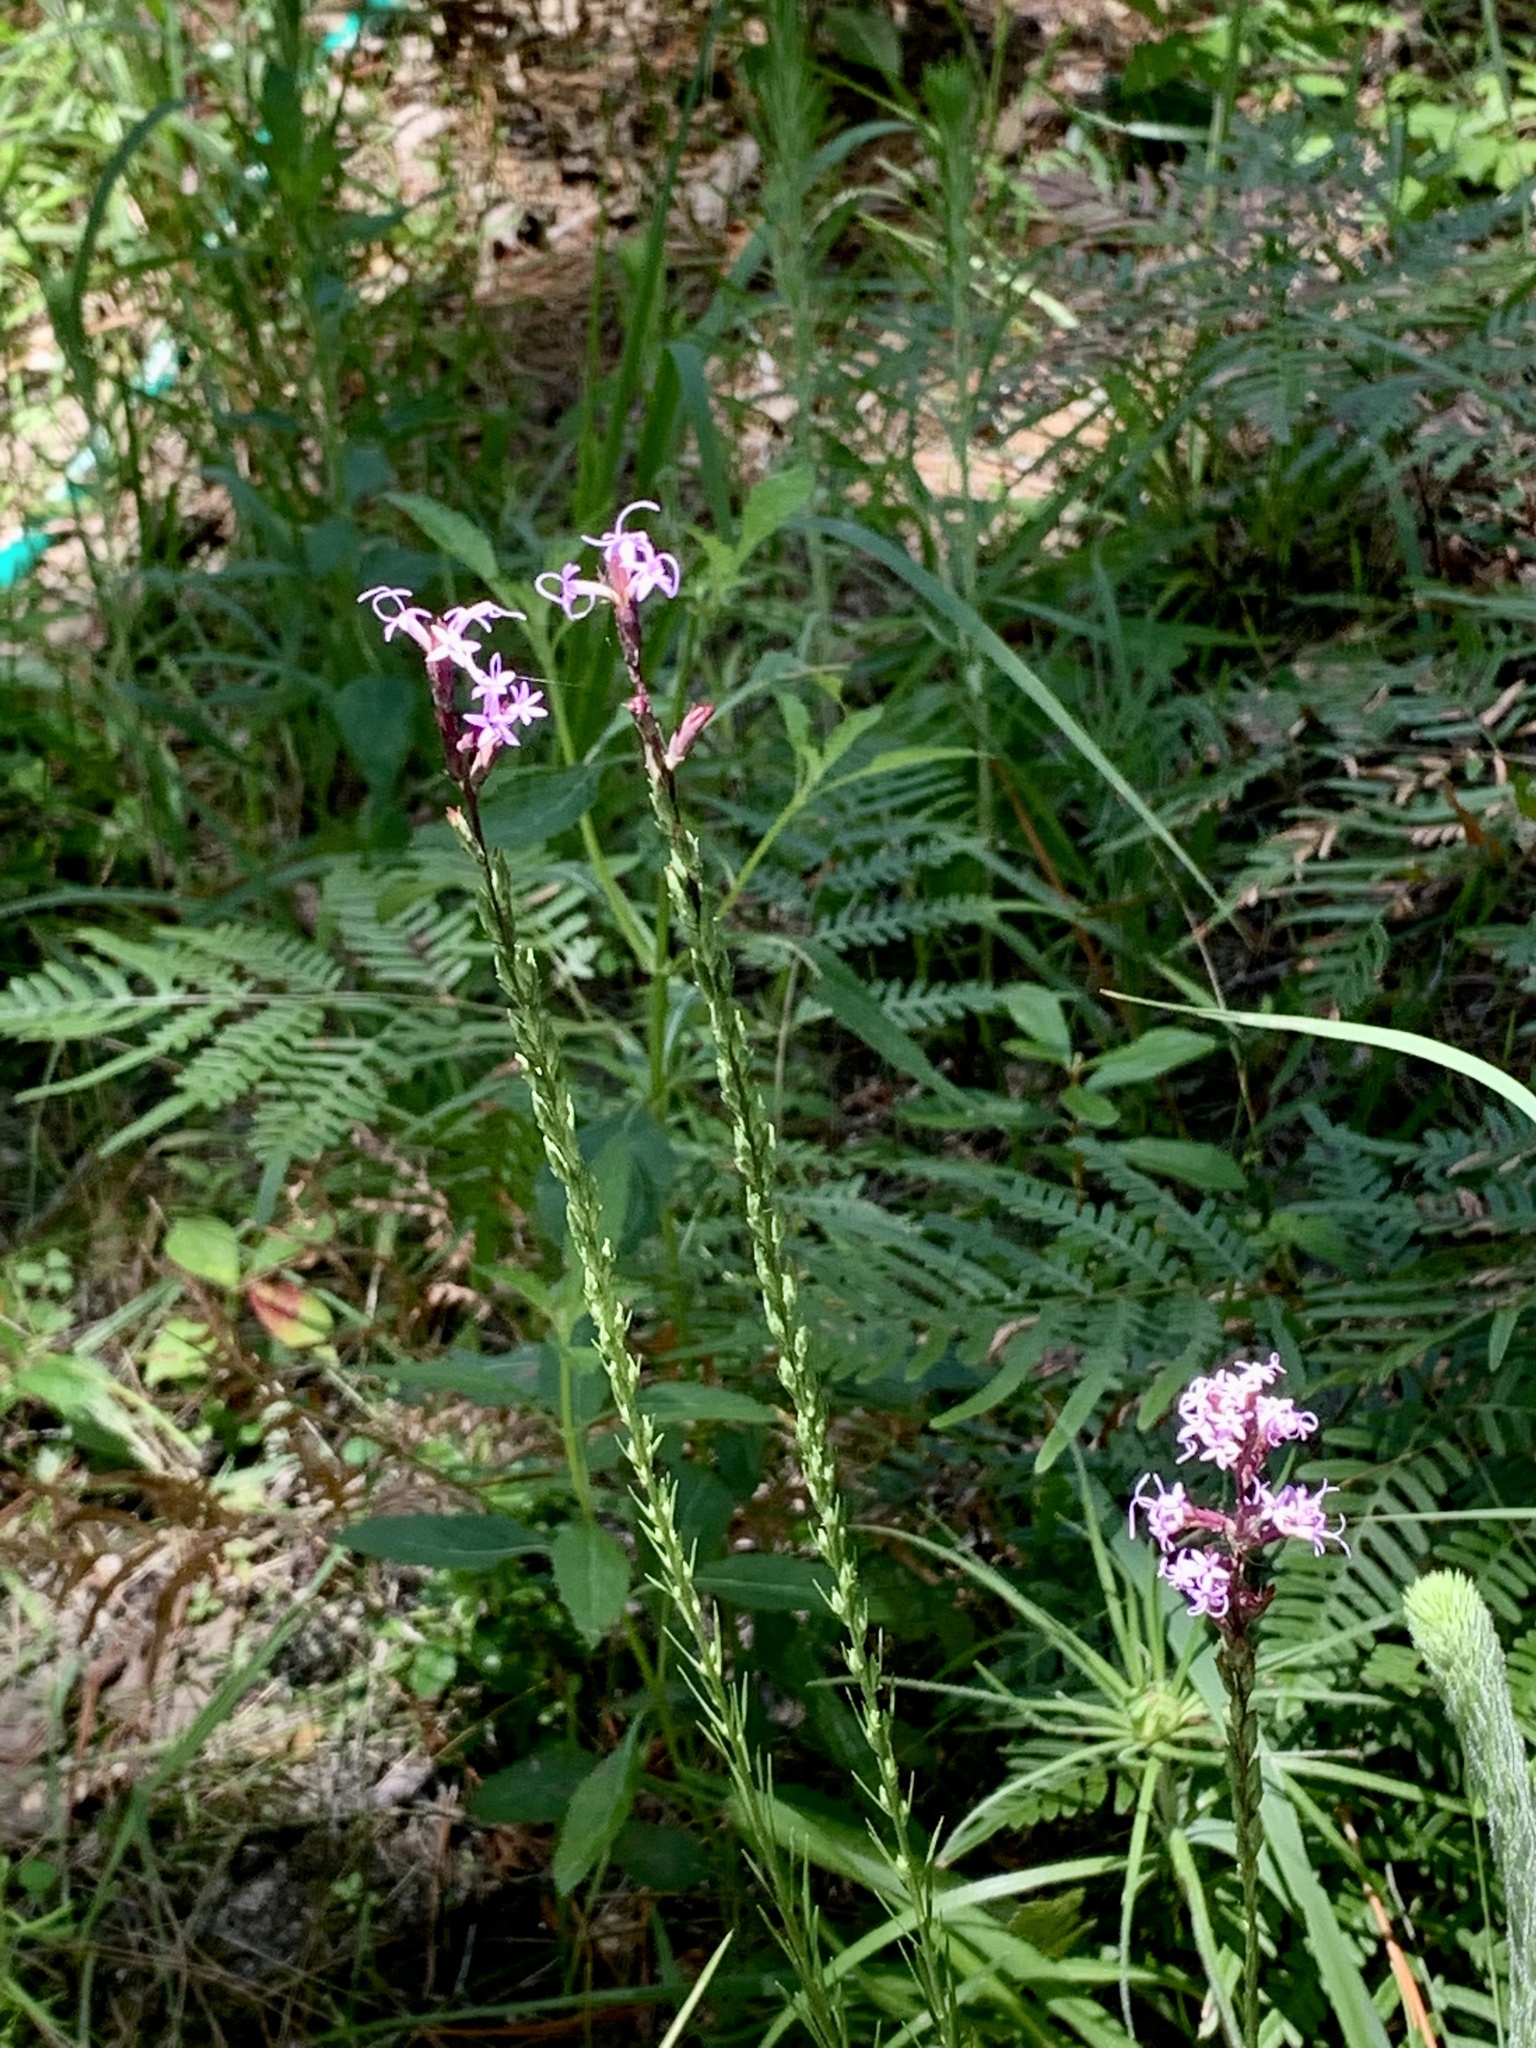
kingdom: Plantae
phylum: Tracheophyta
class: Magnoliopsida
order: Asterales
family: Asteraceae
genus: Liatris
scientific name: Liatris acidota
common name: Gulf coast gayfeather
